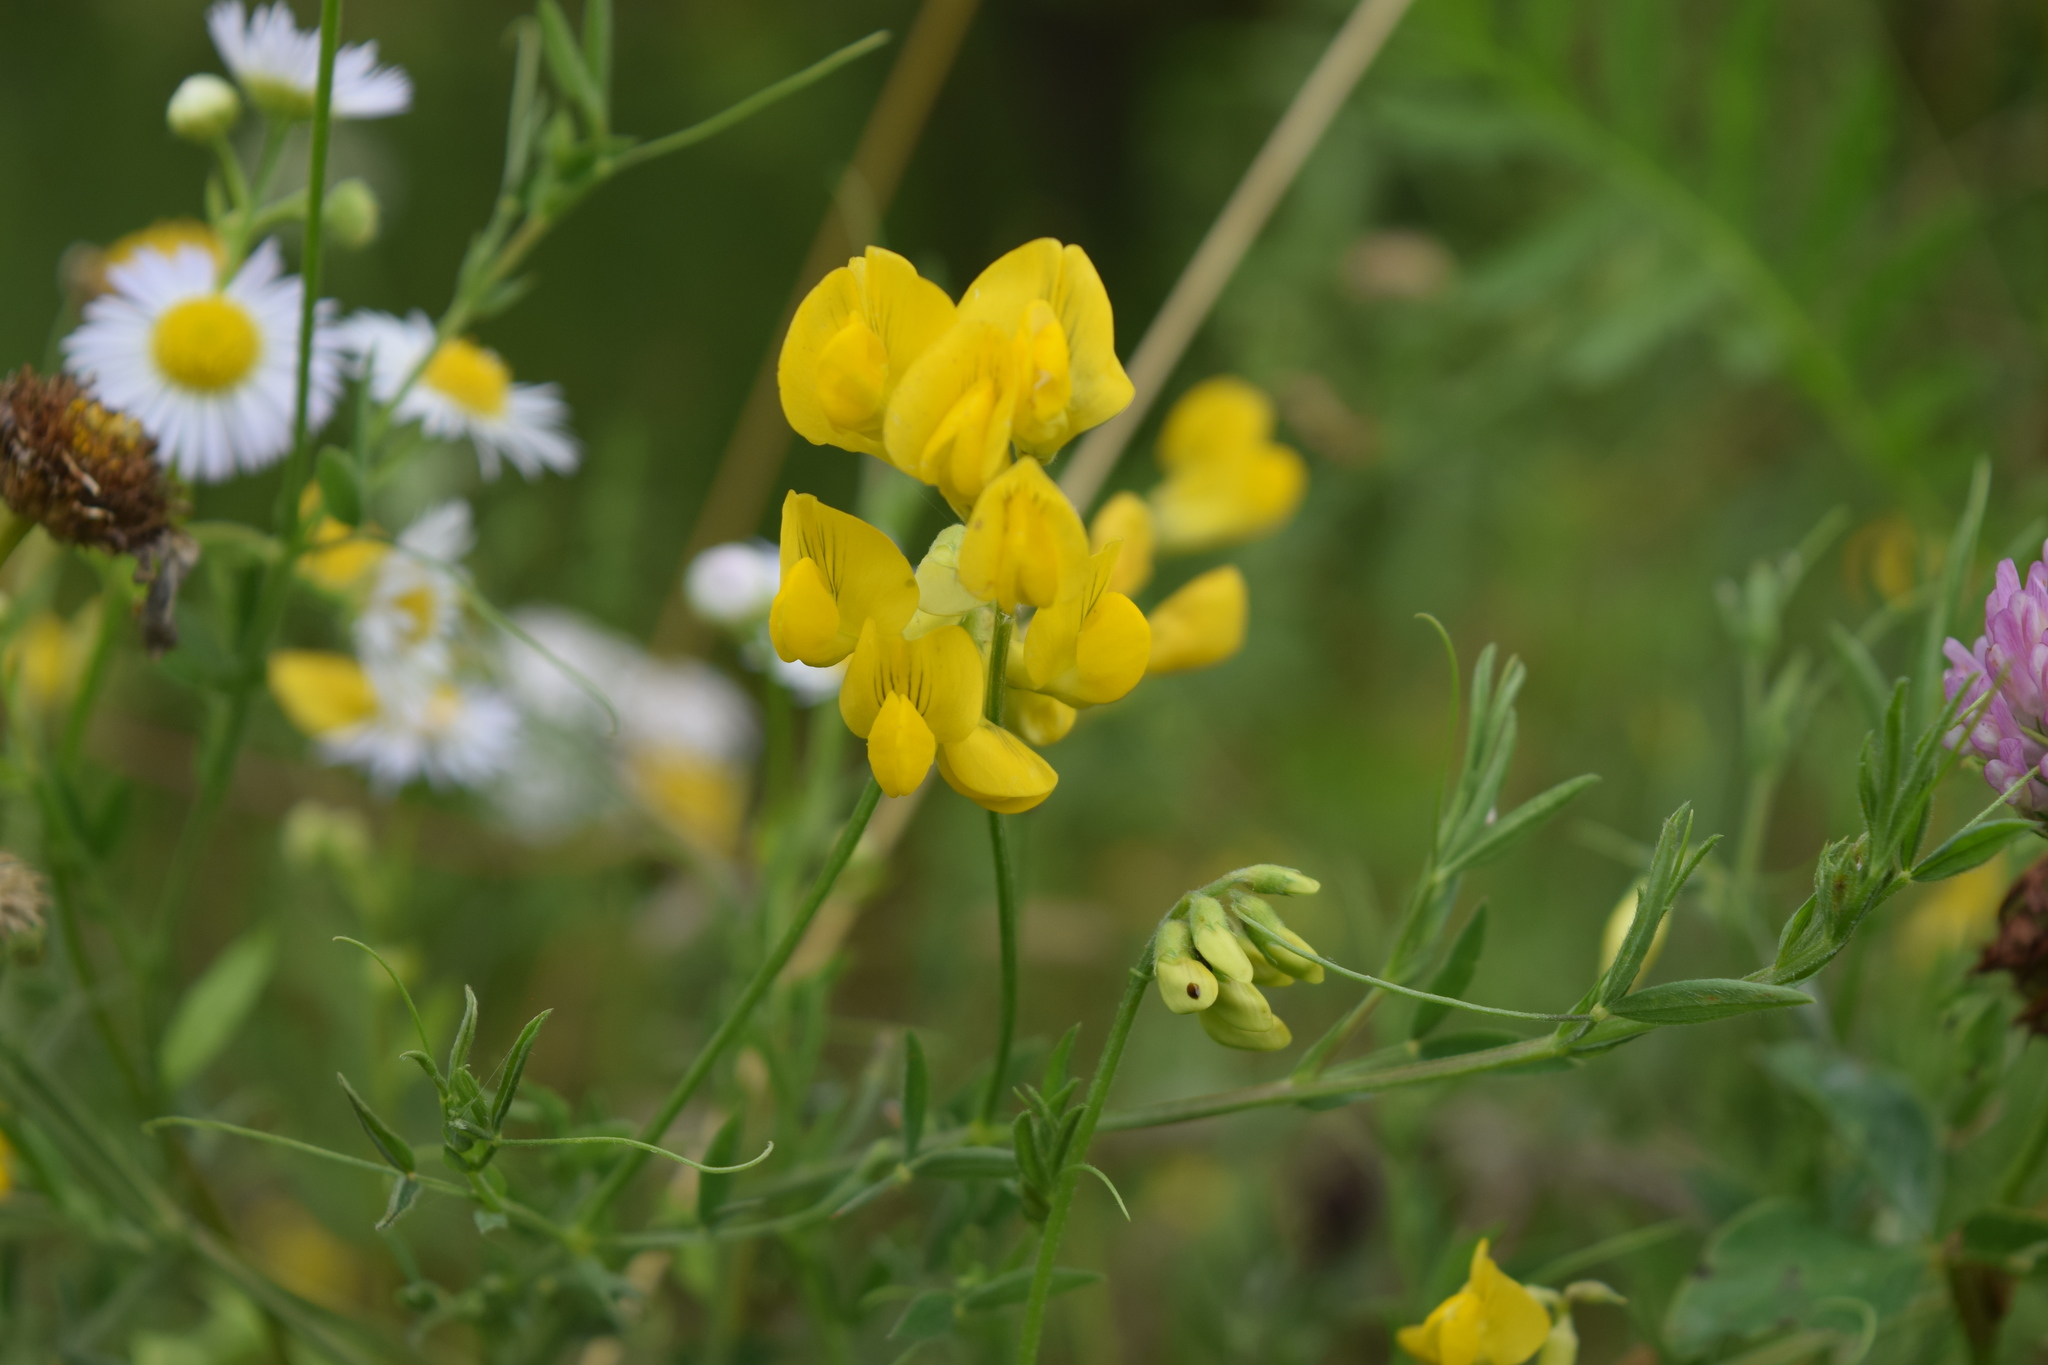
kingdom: Plantae
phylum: Tracheophyta
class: Magnoliopsida
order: Fabales
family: Fabaceae
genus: Lathyrus
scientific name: Lathyrus pratensis
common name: Meadow vetchling
